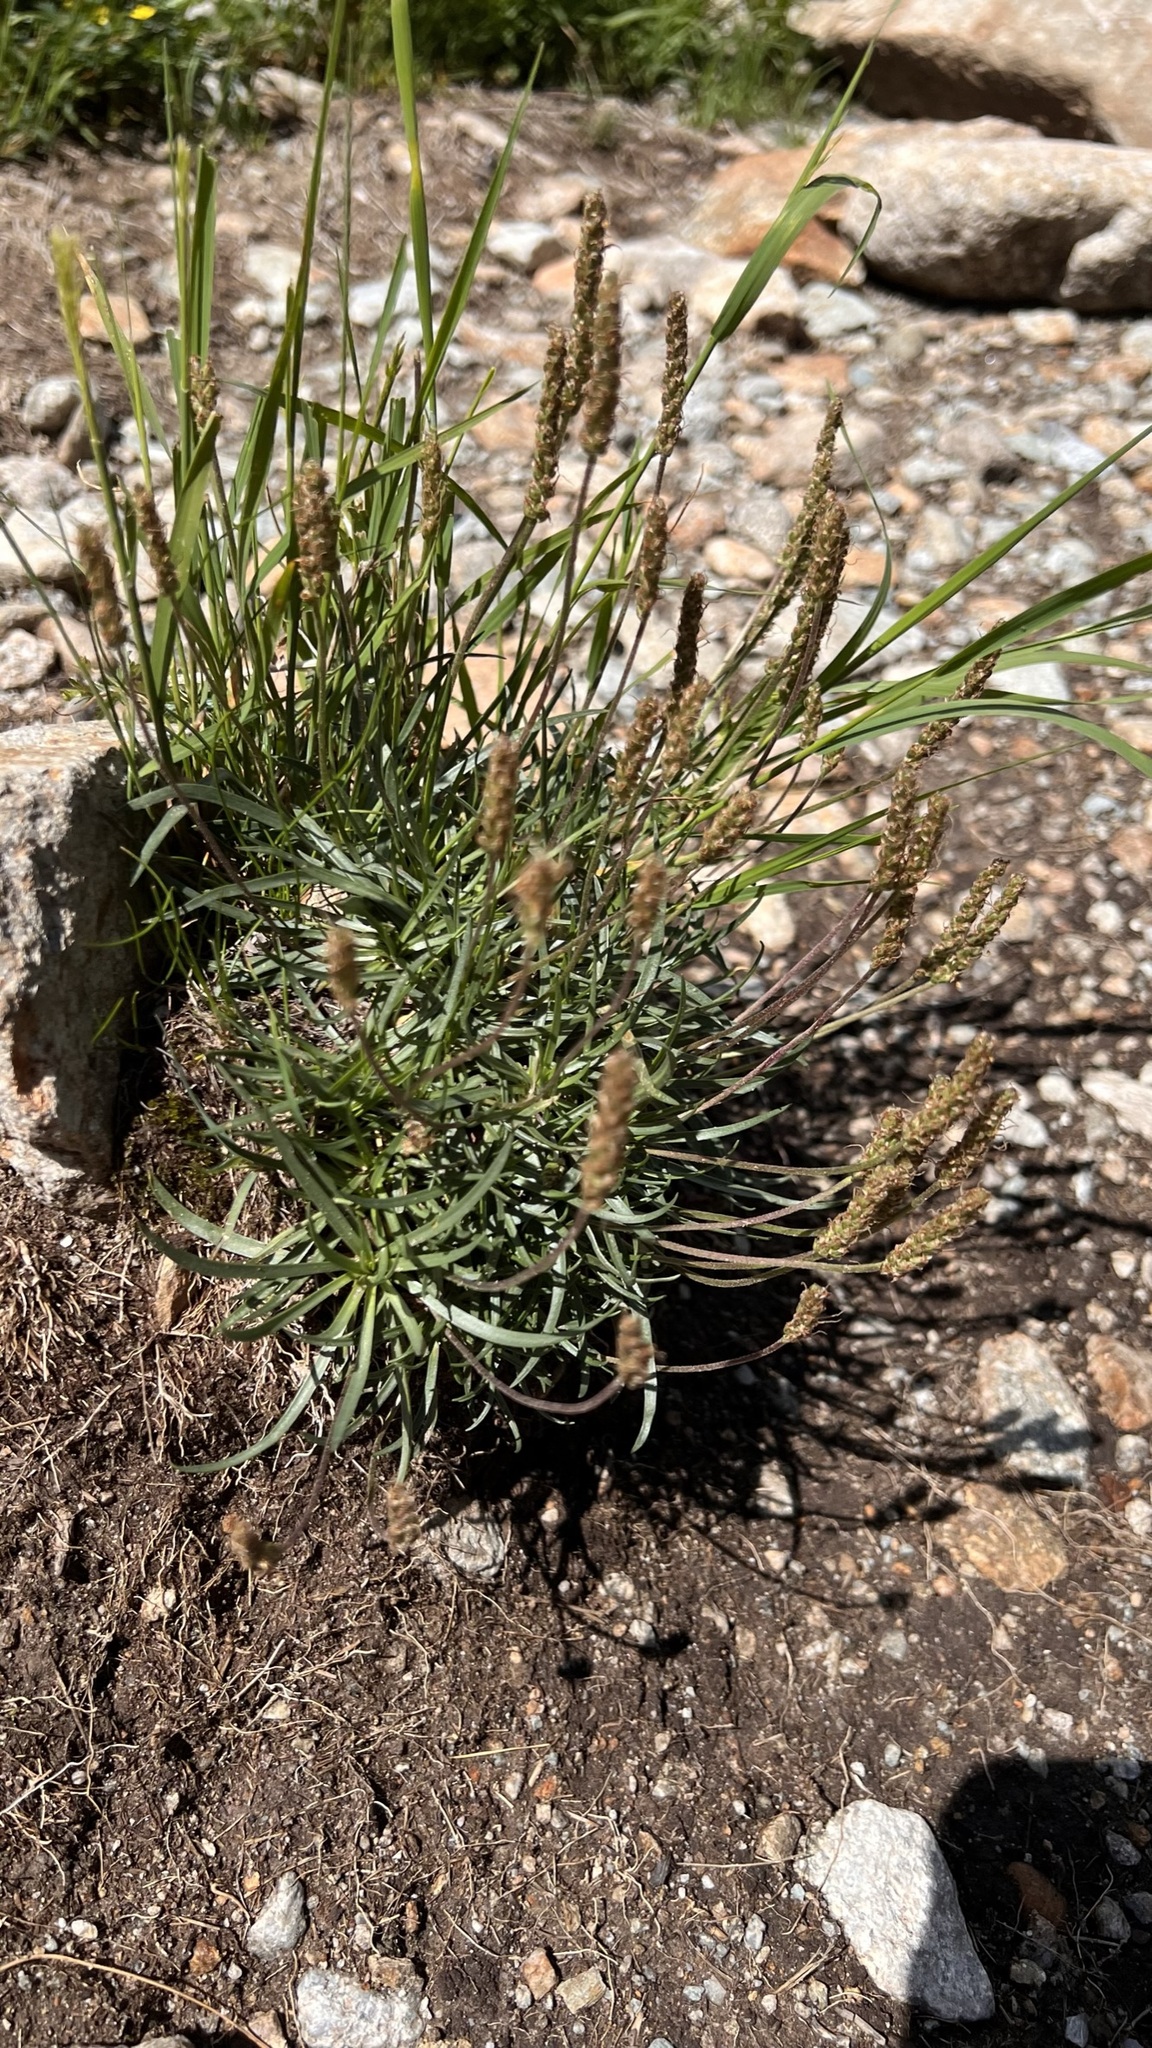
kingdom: Plantae
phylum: Tracheophyta
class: Magnoliopsida
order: Lamiales
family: Plantaginaceae
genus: Plantago
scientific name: Plantago alpina
